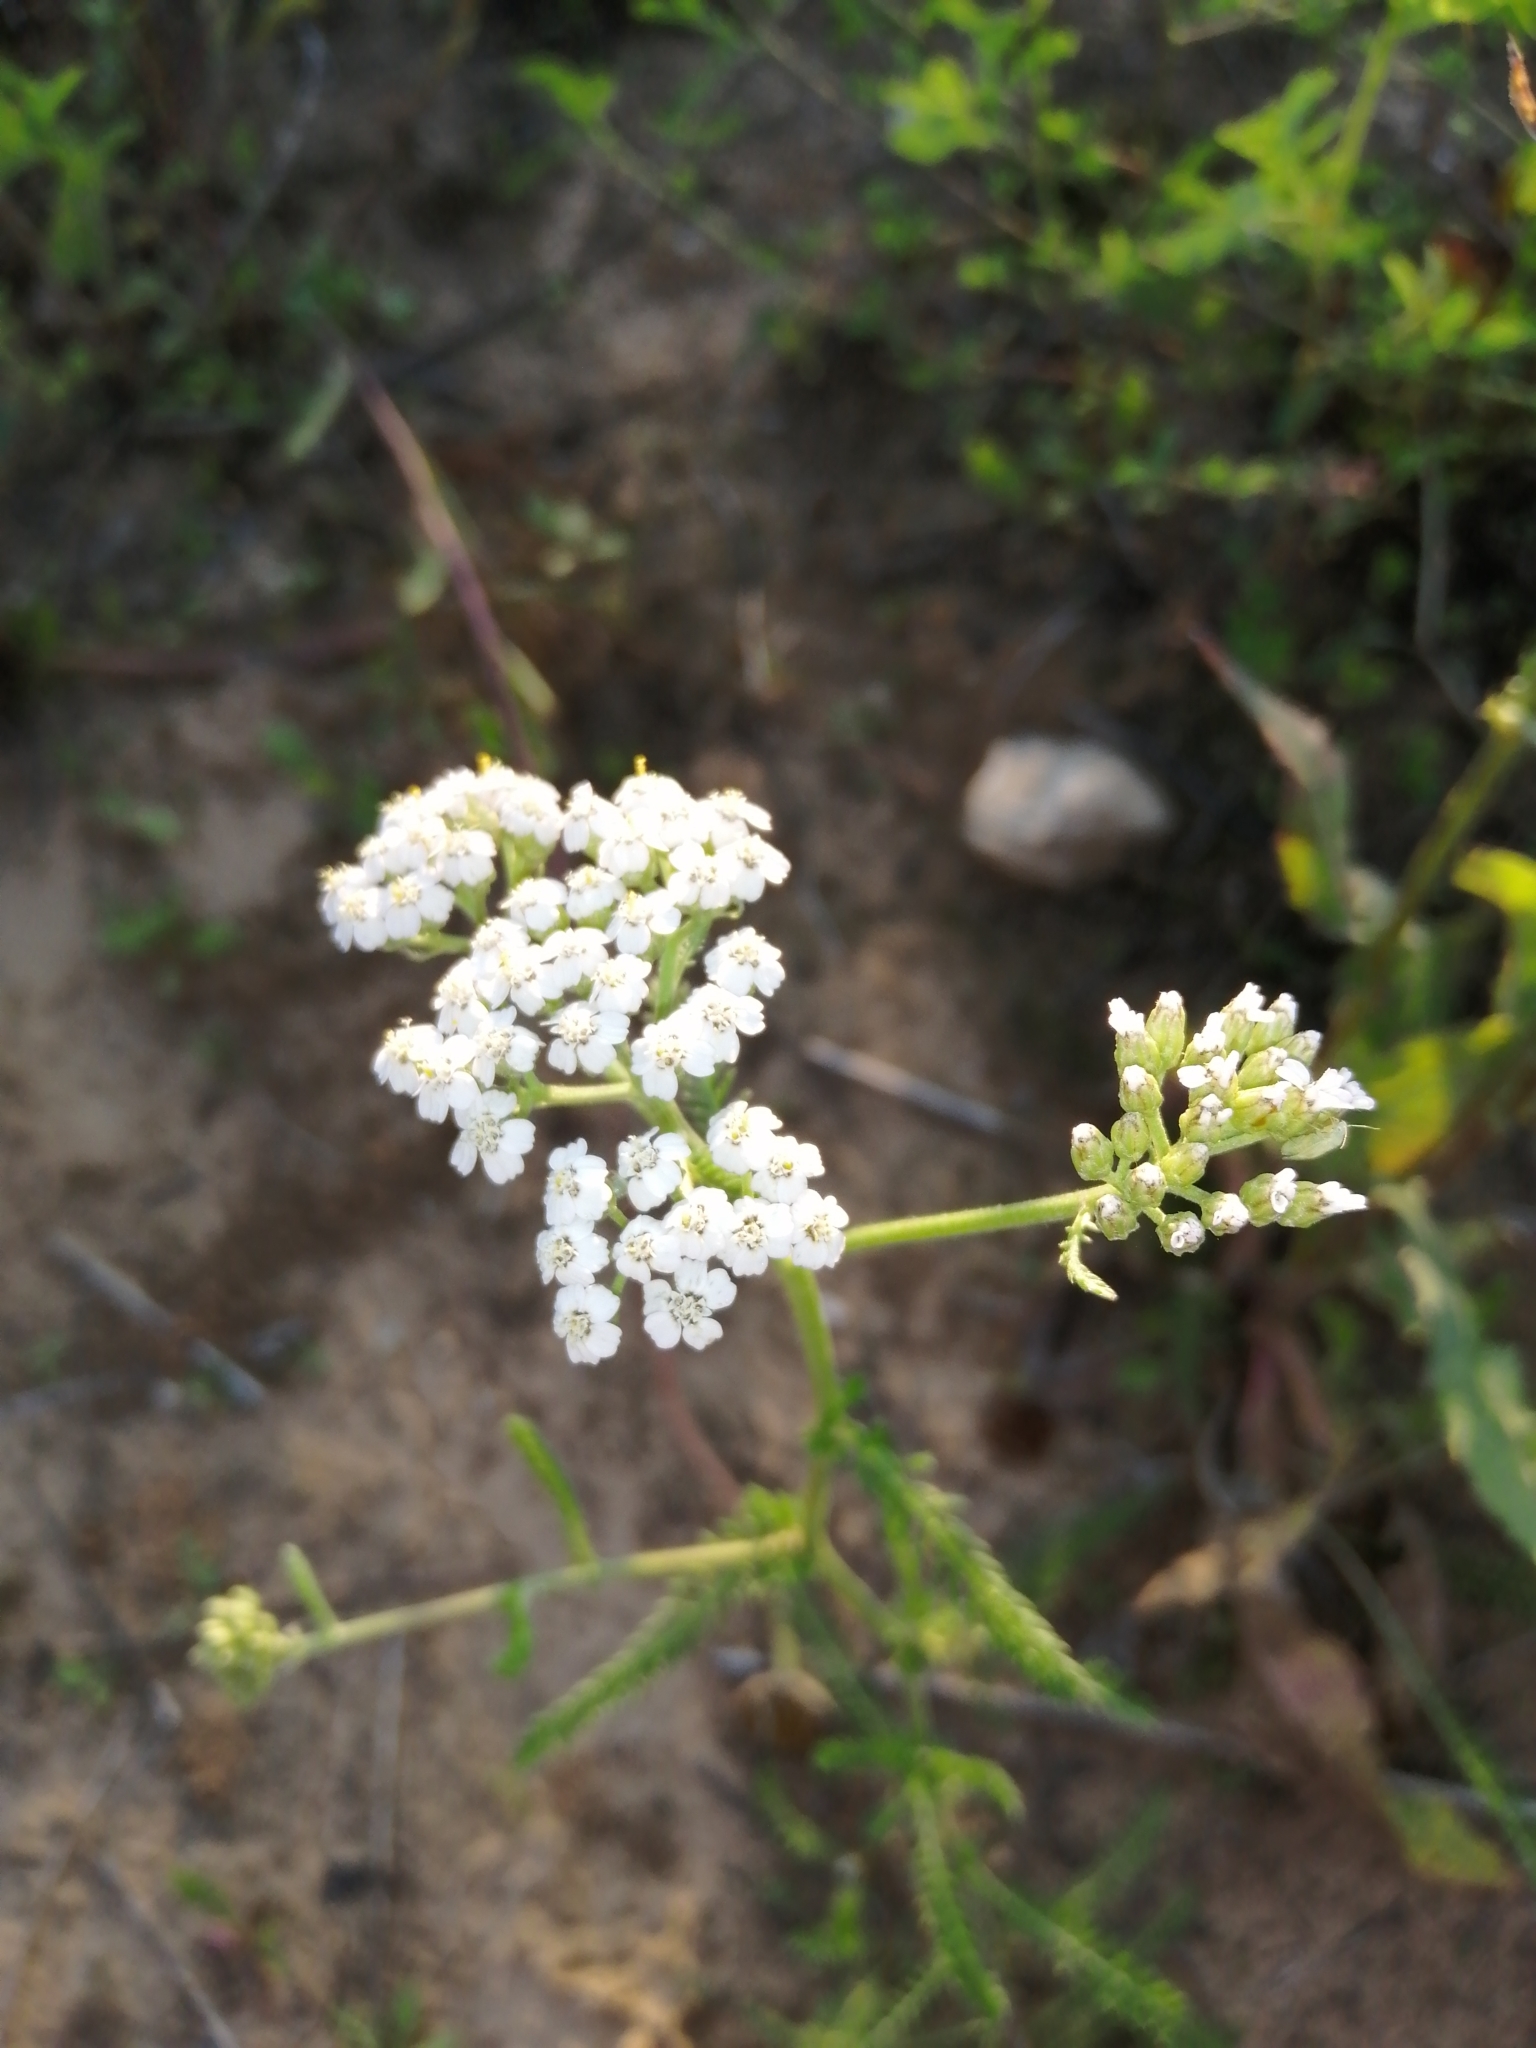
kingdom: Plantae
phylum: Tracheophyta
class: Magnoliopsida
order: Asterales
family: Asteraceae
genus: Achillea
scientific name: Achillea millefolium
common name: Yarrow
